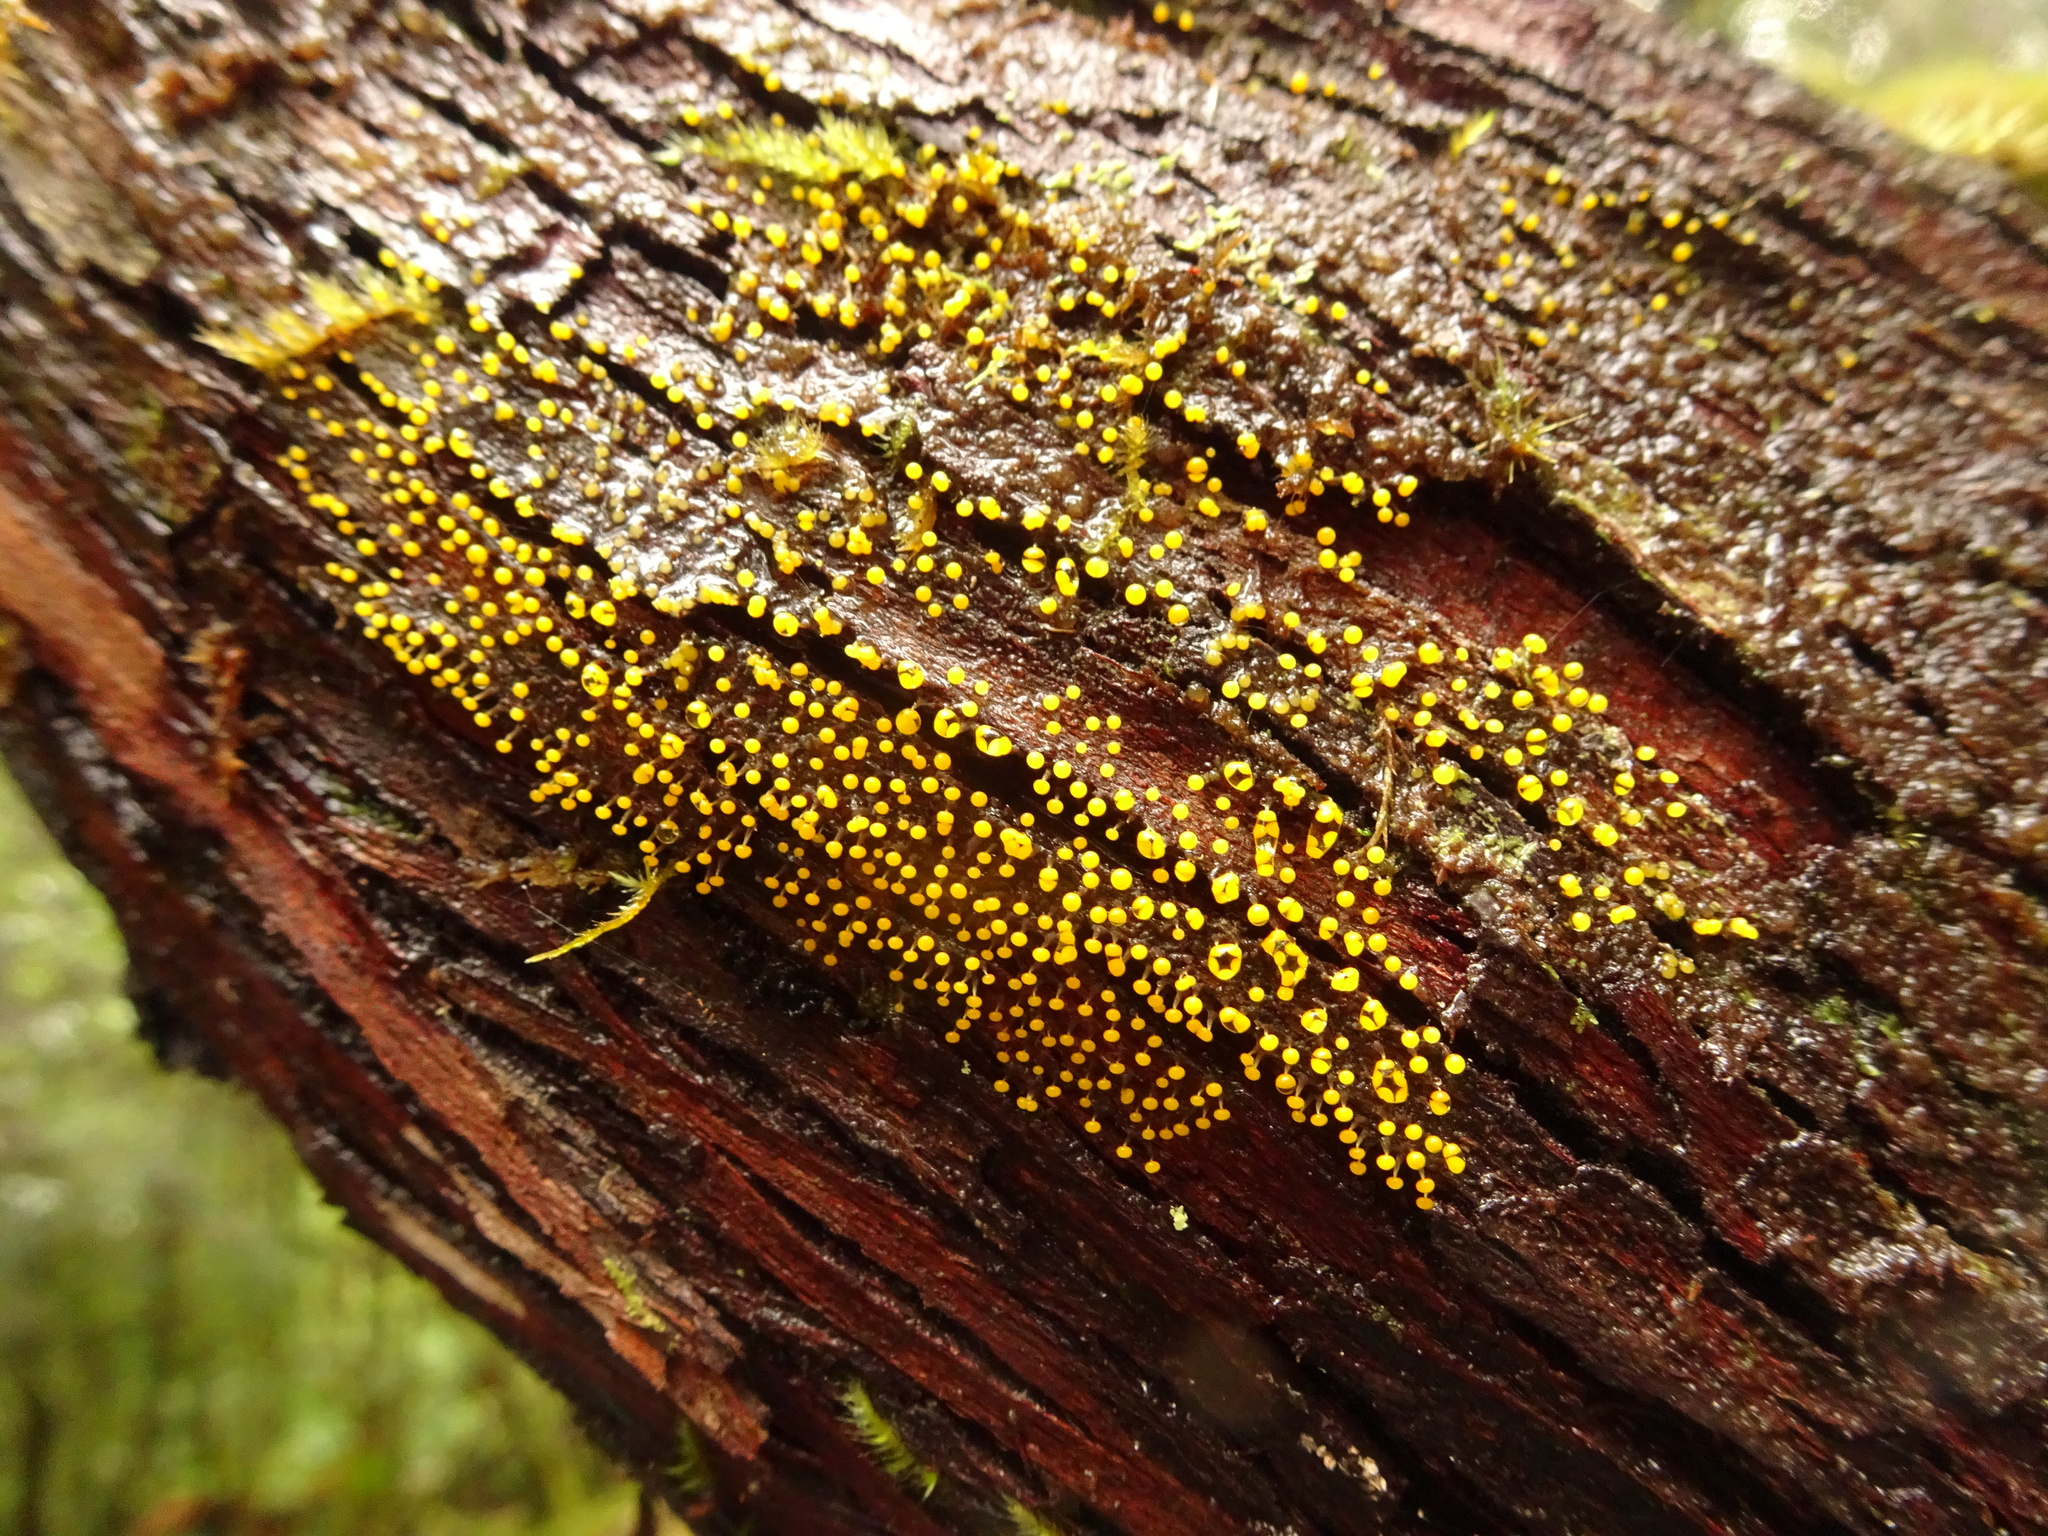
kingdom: Protozoa
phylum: Mycetozoa
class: Myxomycetes
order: Physarales
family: Physaraceae
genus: Physarum
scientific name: Physarum viride
